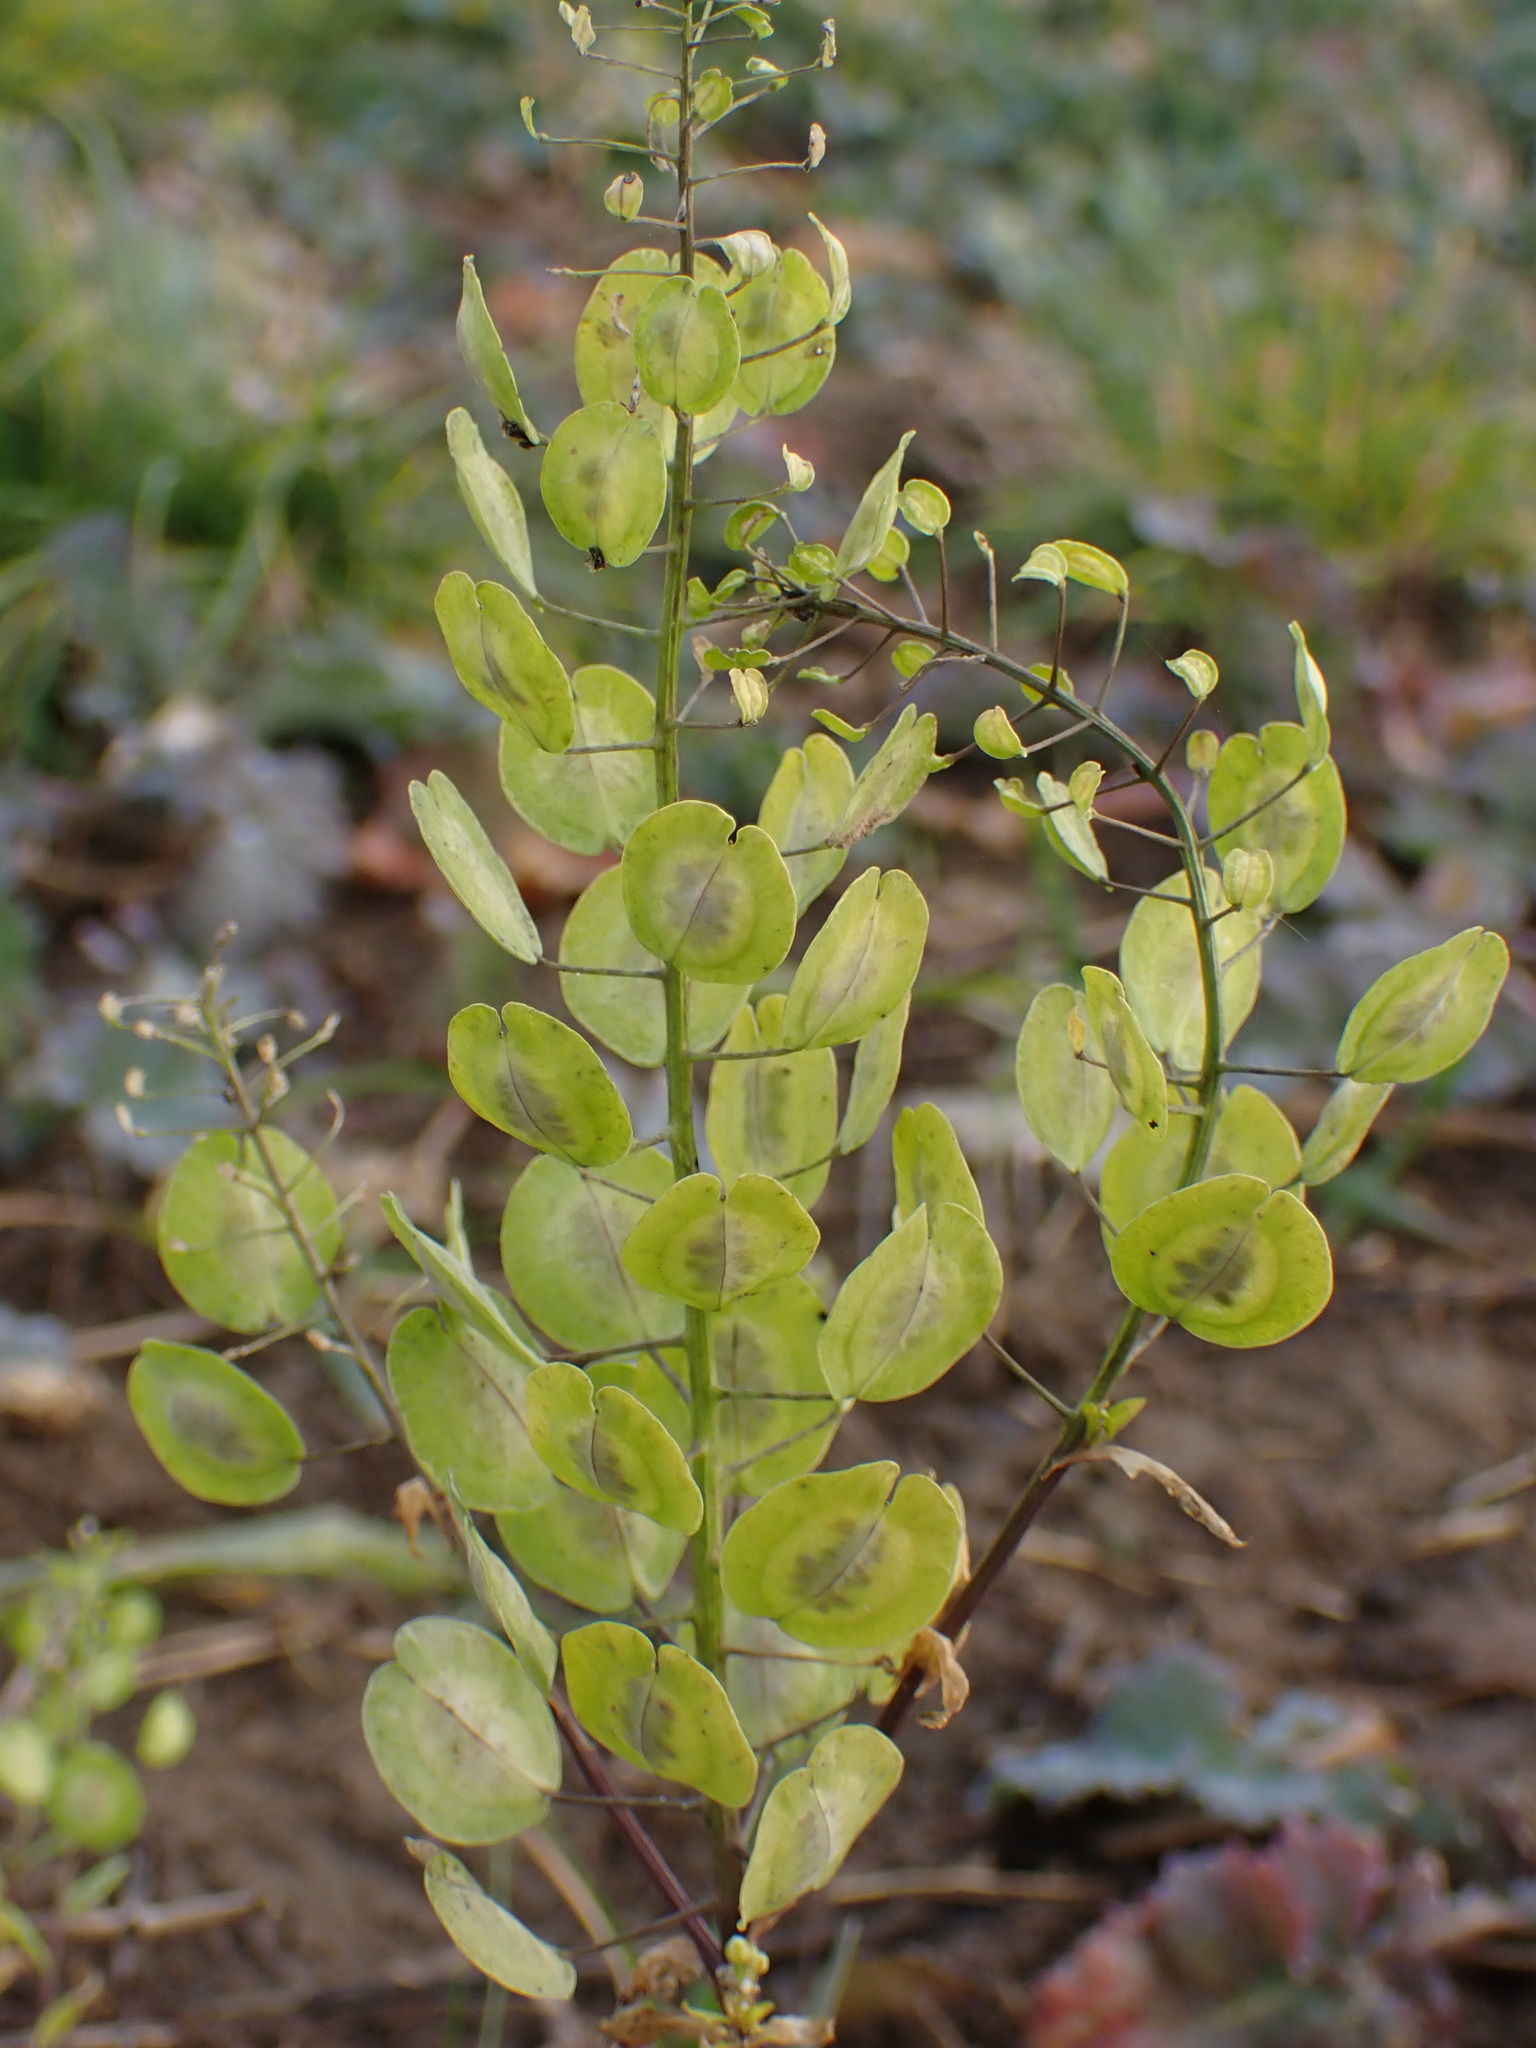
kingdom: Plantae
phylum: Tracheophyta
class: Magnoliopsida
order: Brassicales
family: Brassicaceae
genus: Thlaspi
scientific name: Thlaspi arvense
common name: Field pennycress
